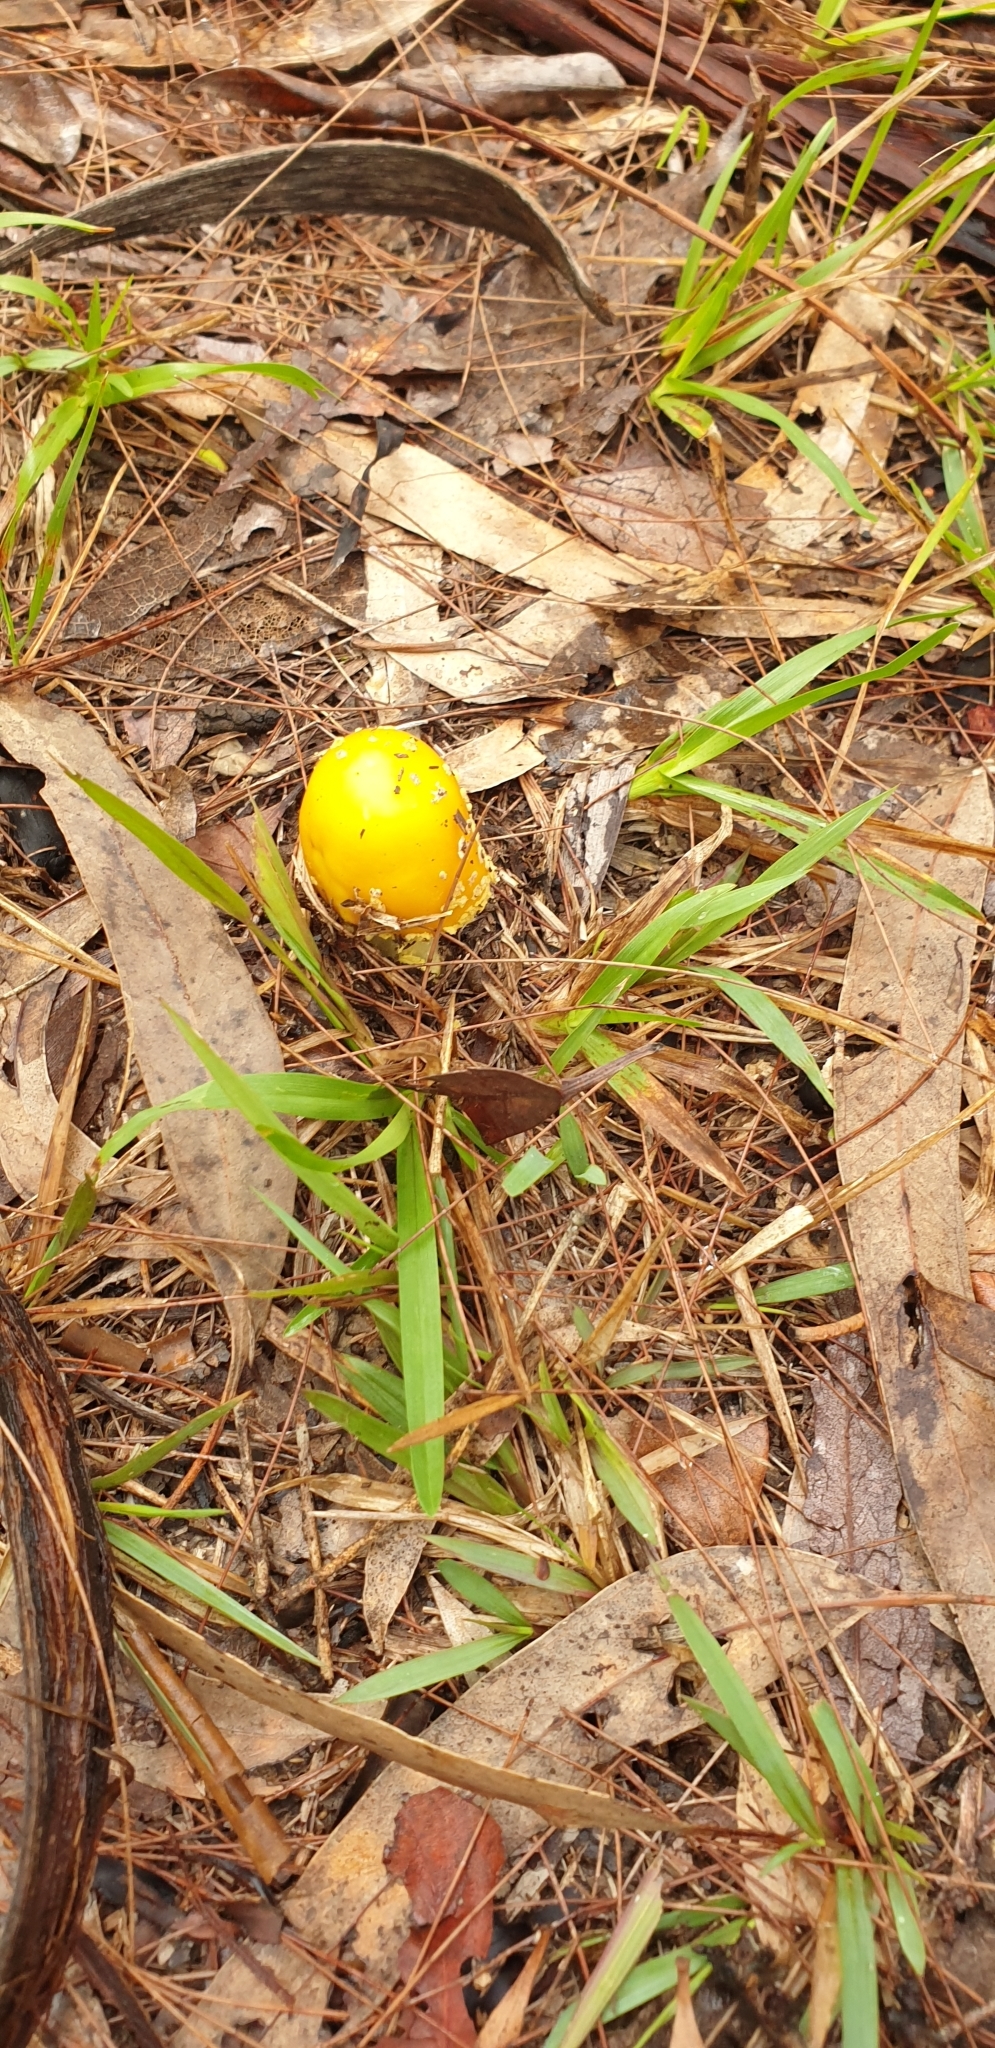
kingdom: Fungi
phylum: Basidiomycota
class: Agaricomycetes
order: Agaricales
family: Amanitaceae
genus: Amanita
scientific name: Amanita flavella
